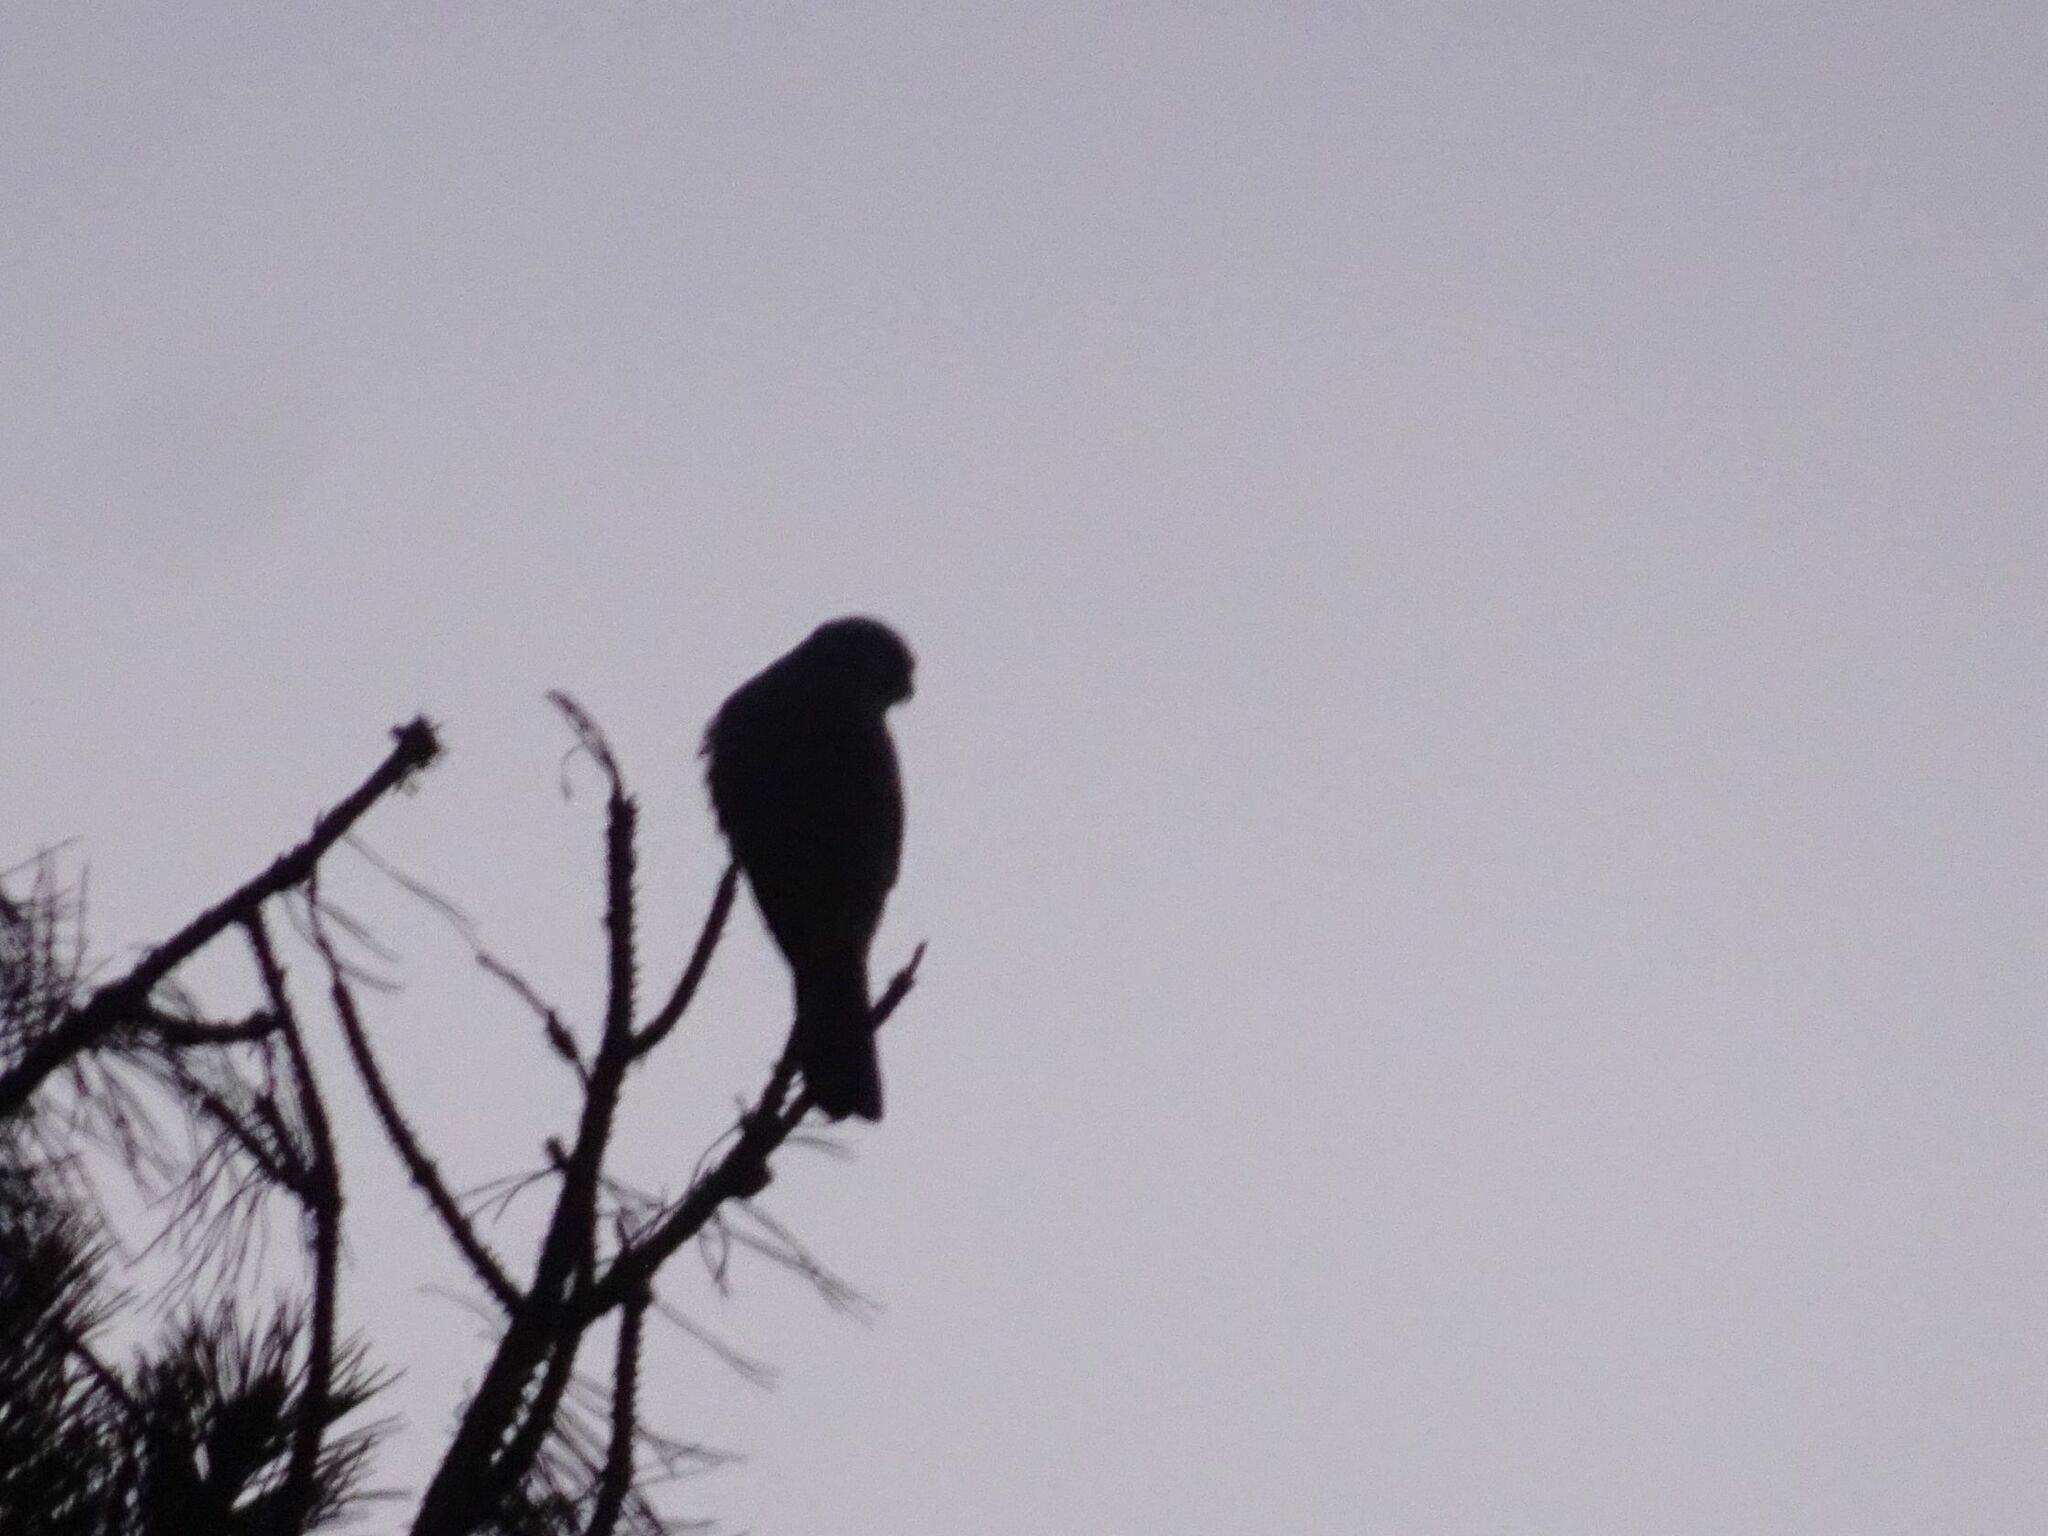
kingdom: Animalia
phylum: Chordata
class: Aves
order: Falconiformes
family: Falconidae
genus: Falco
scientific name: Falco tinnunculus
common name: Common kestrel
